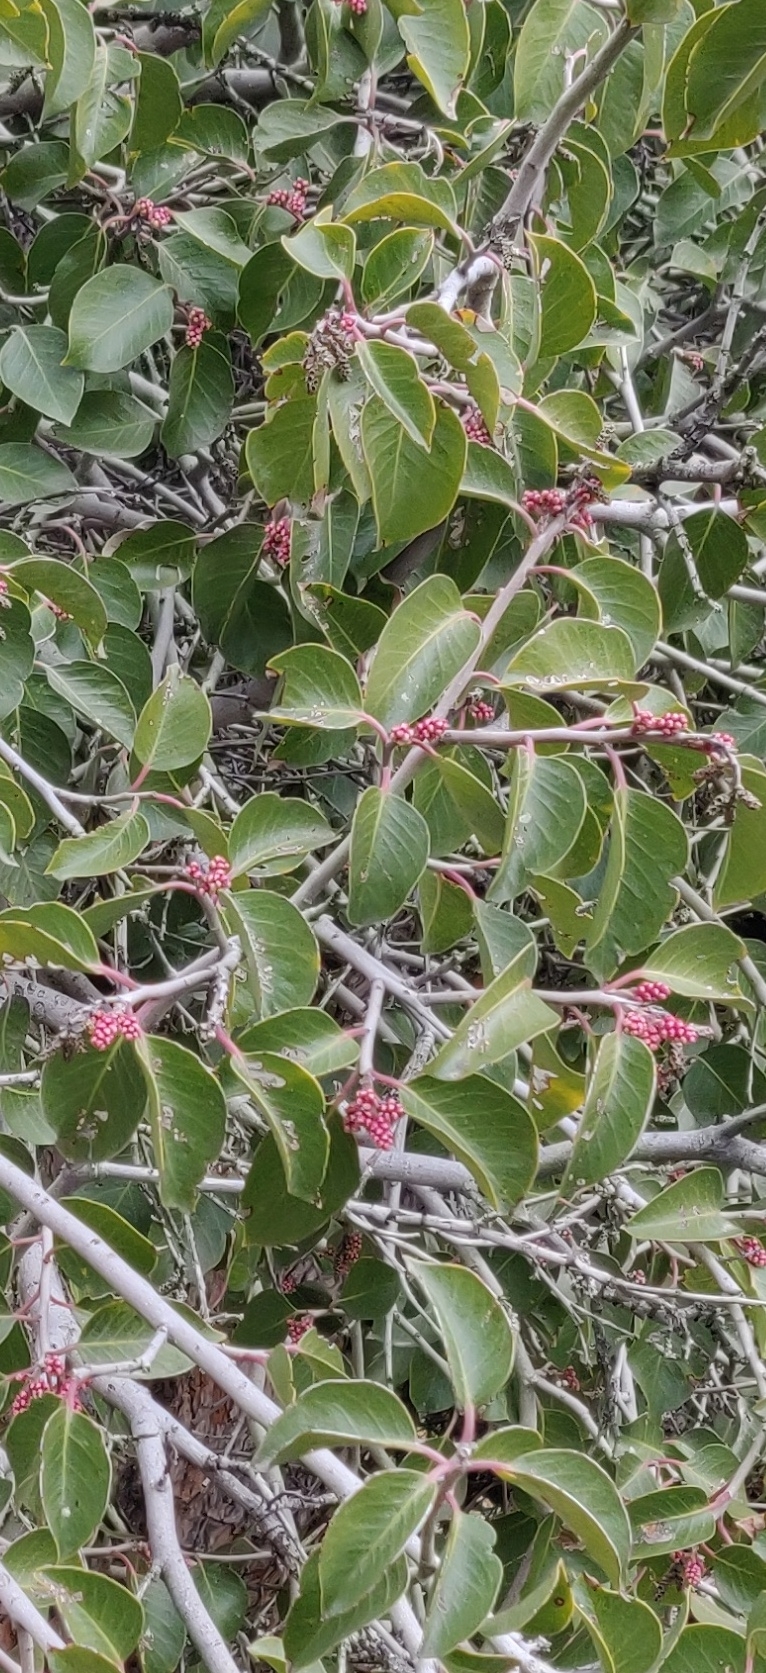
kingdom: Plantae
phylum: Tracheophyta
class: Magnoliopsida
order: Sapindales
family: Anacardiaceae
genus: Rhus
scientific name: Rhus ovata
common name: Sugar sumac
